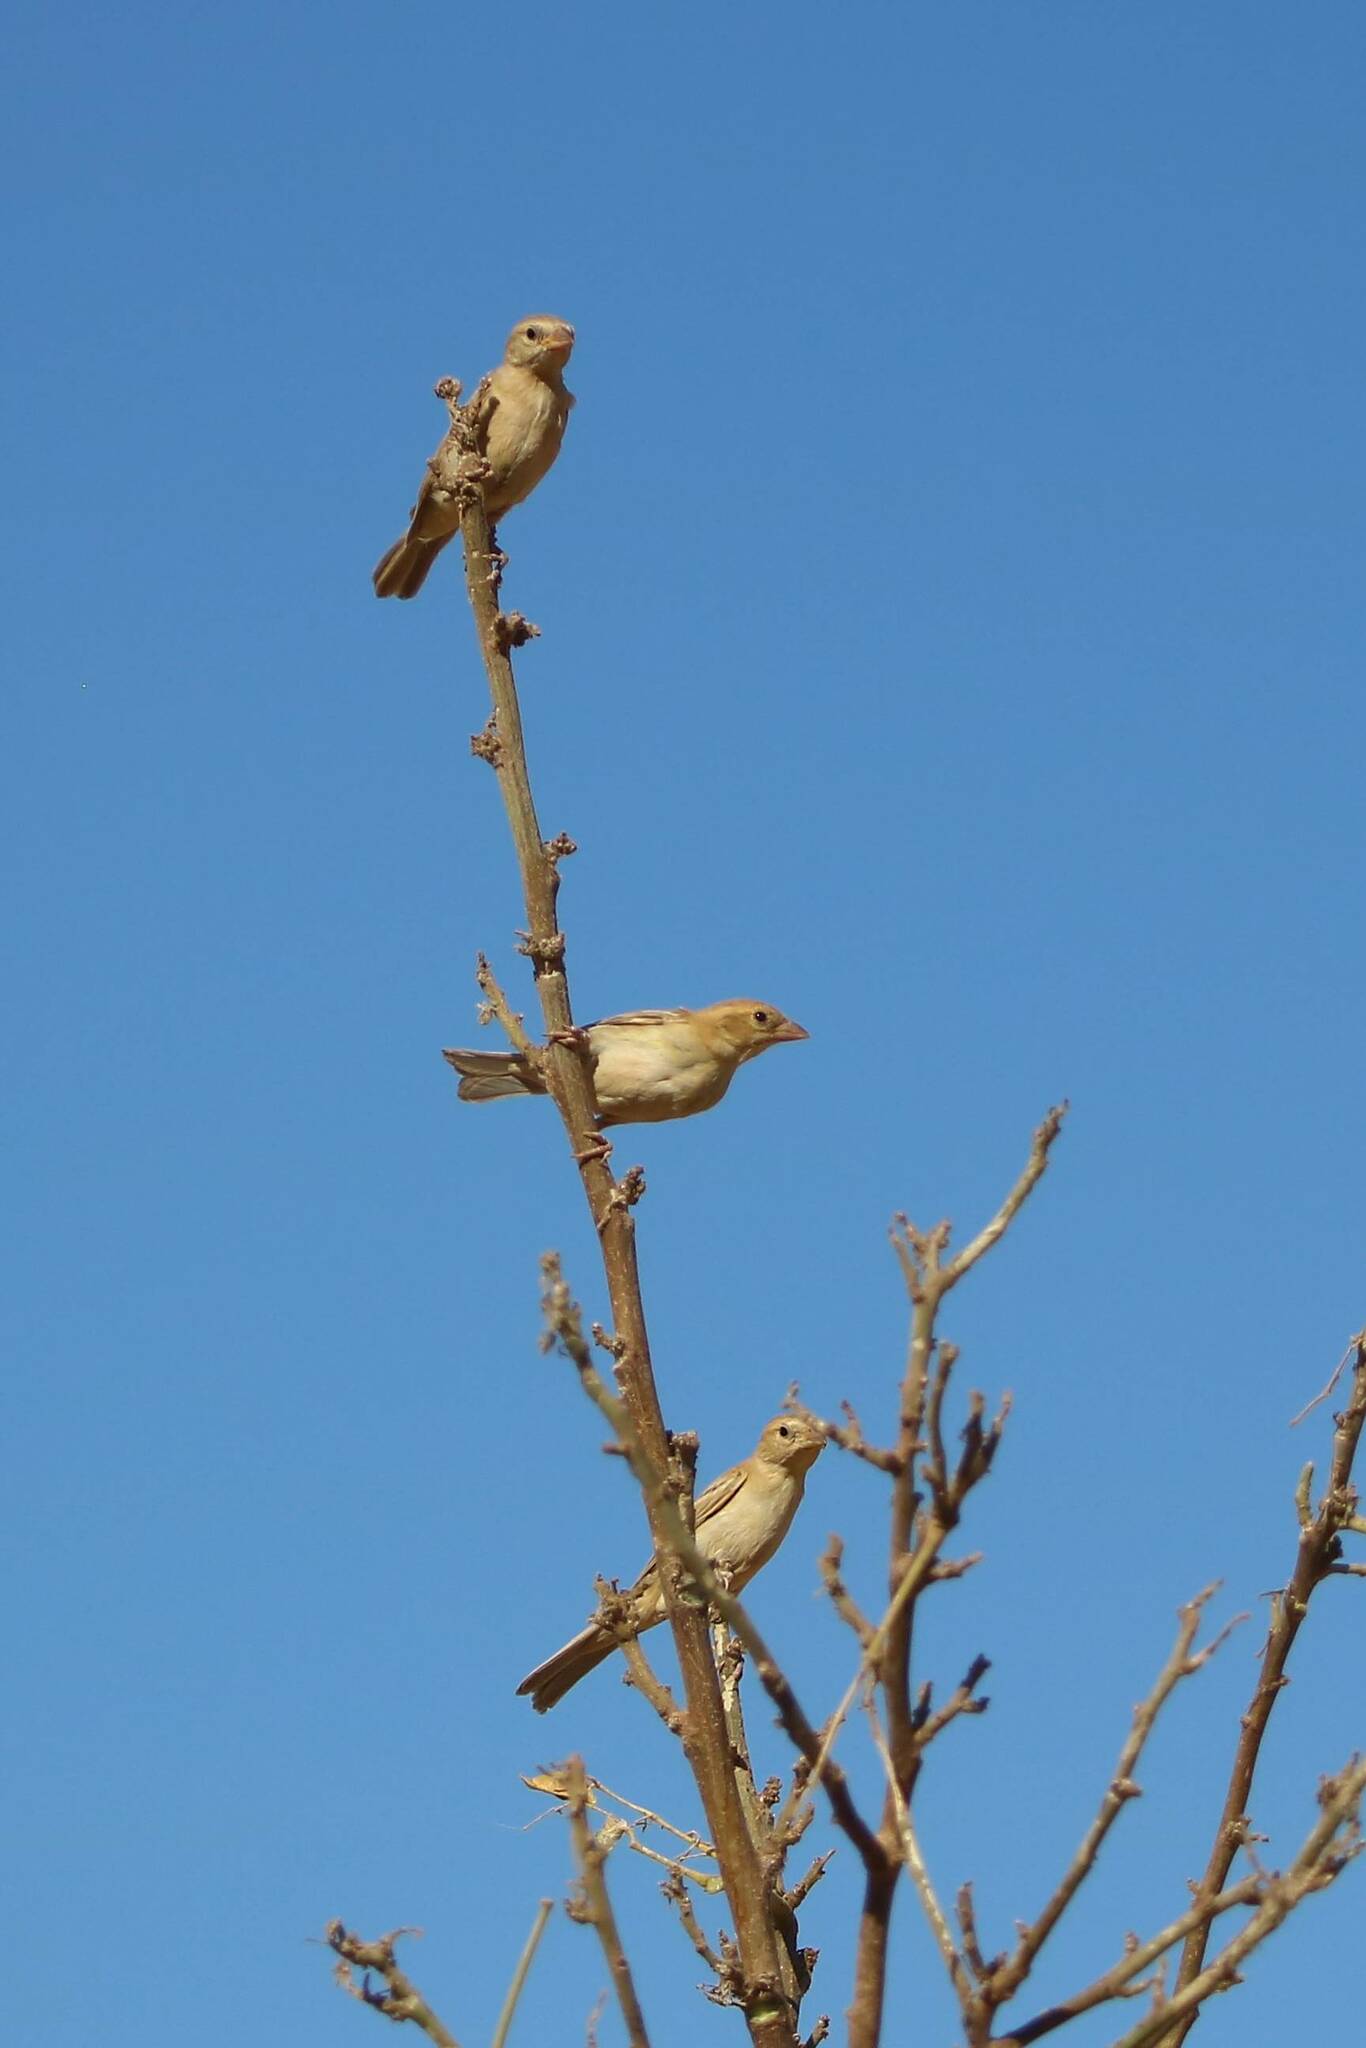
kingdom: Animalia
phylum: Chordata
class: Aves
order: Passeriformes
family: Passeridae
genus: Passer
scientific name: Passer luteus
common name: Sudan golden sparrow
